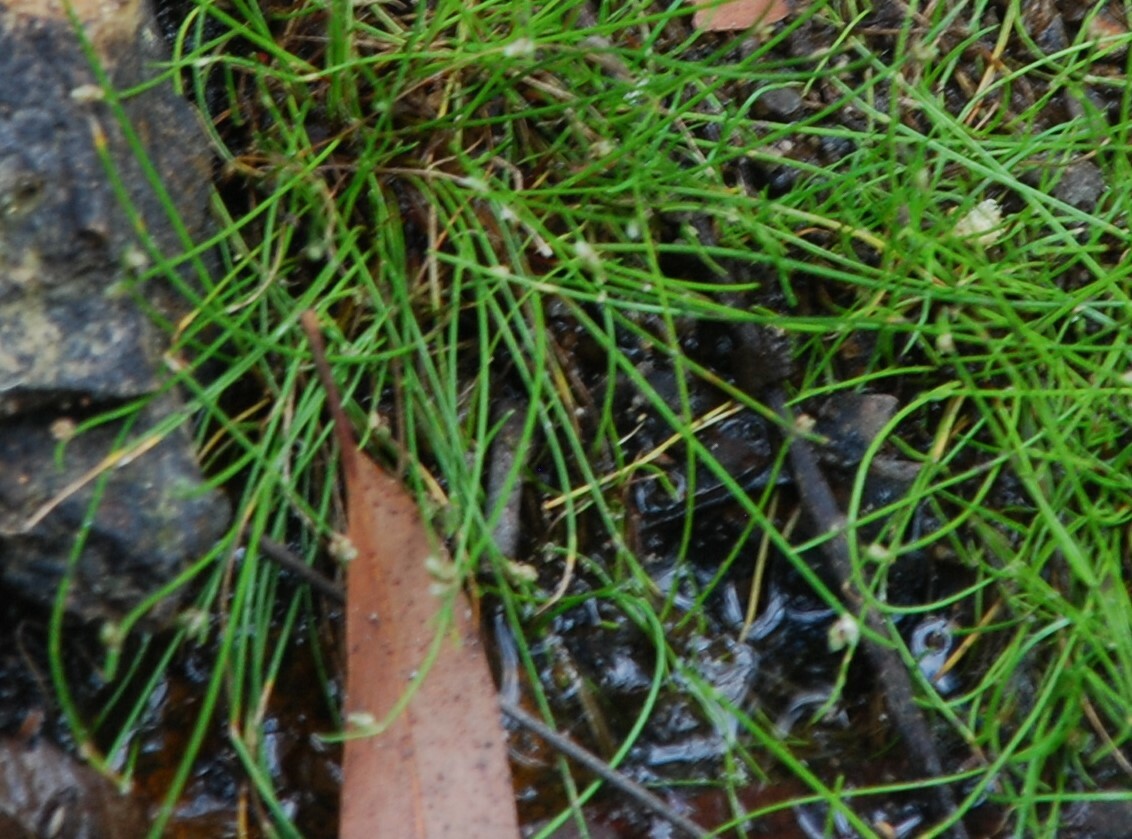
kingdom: Plantae
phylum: Tracheophyta
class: Liliopsida
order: Poales
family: Cyperaceae
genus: Isolepis
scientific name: Isolepis cernua
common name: Slender club-rush
